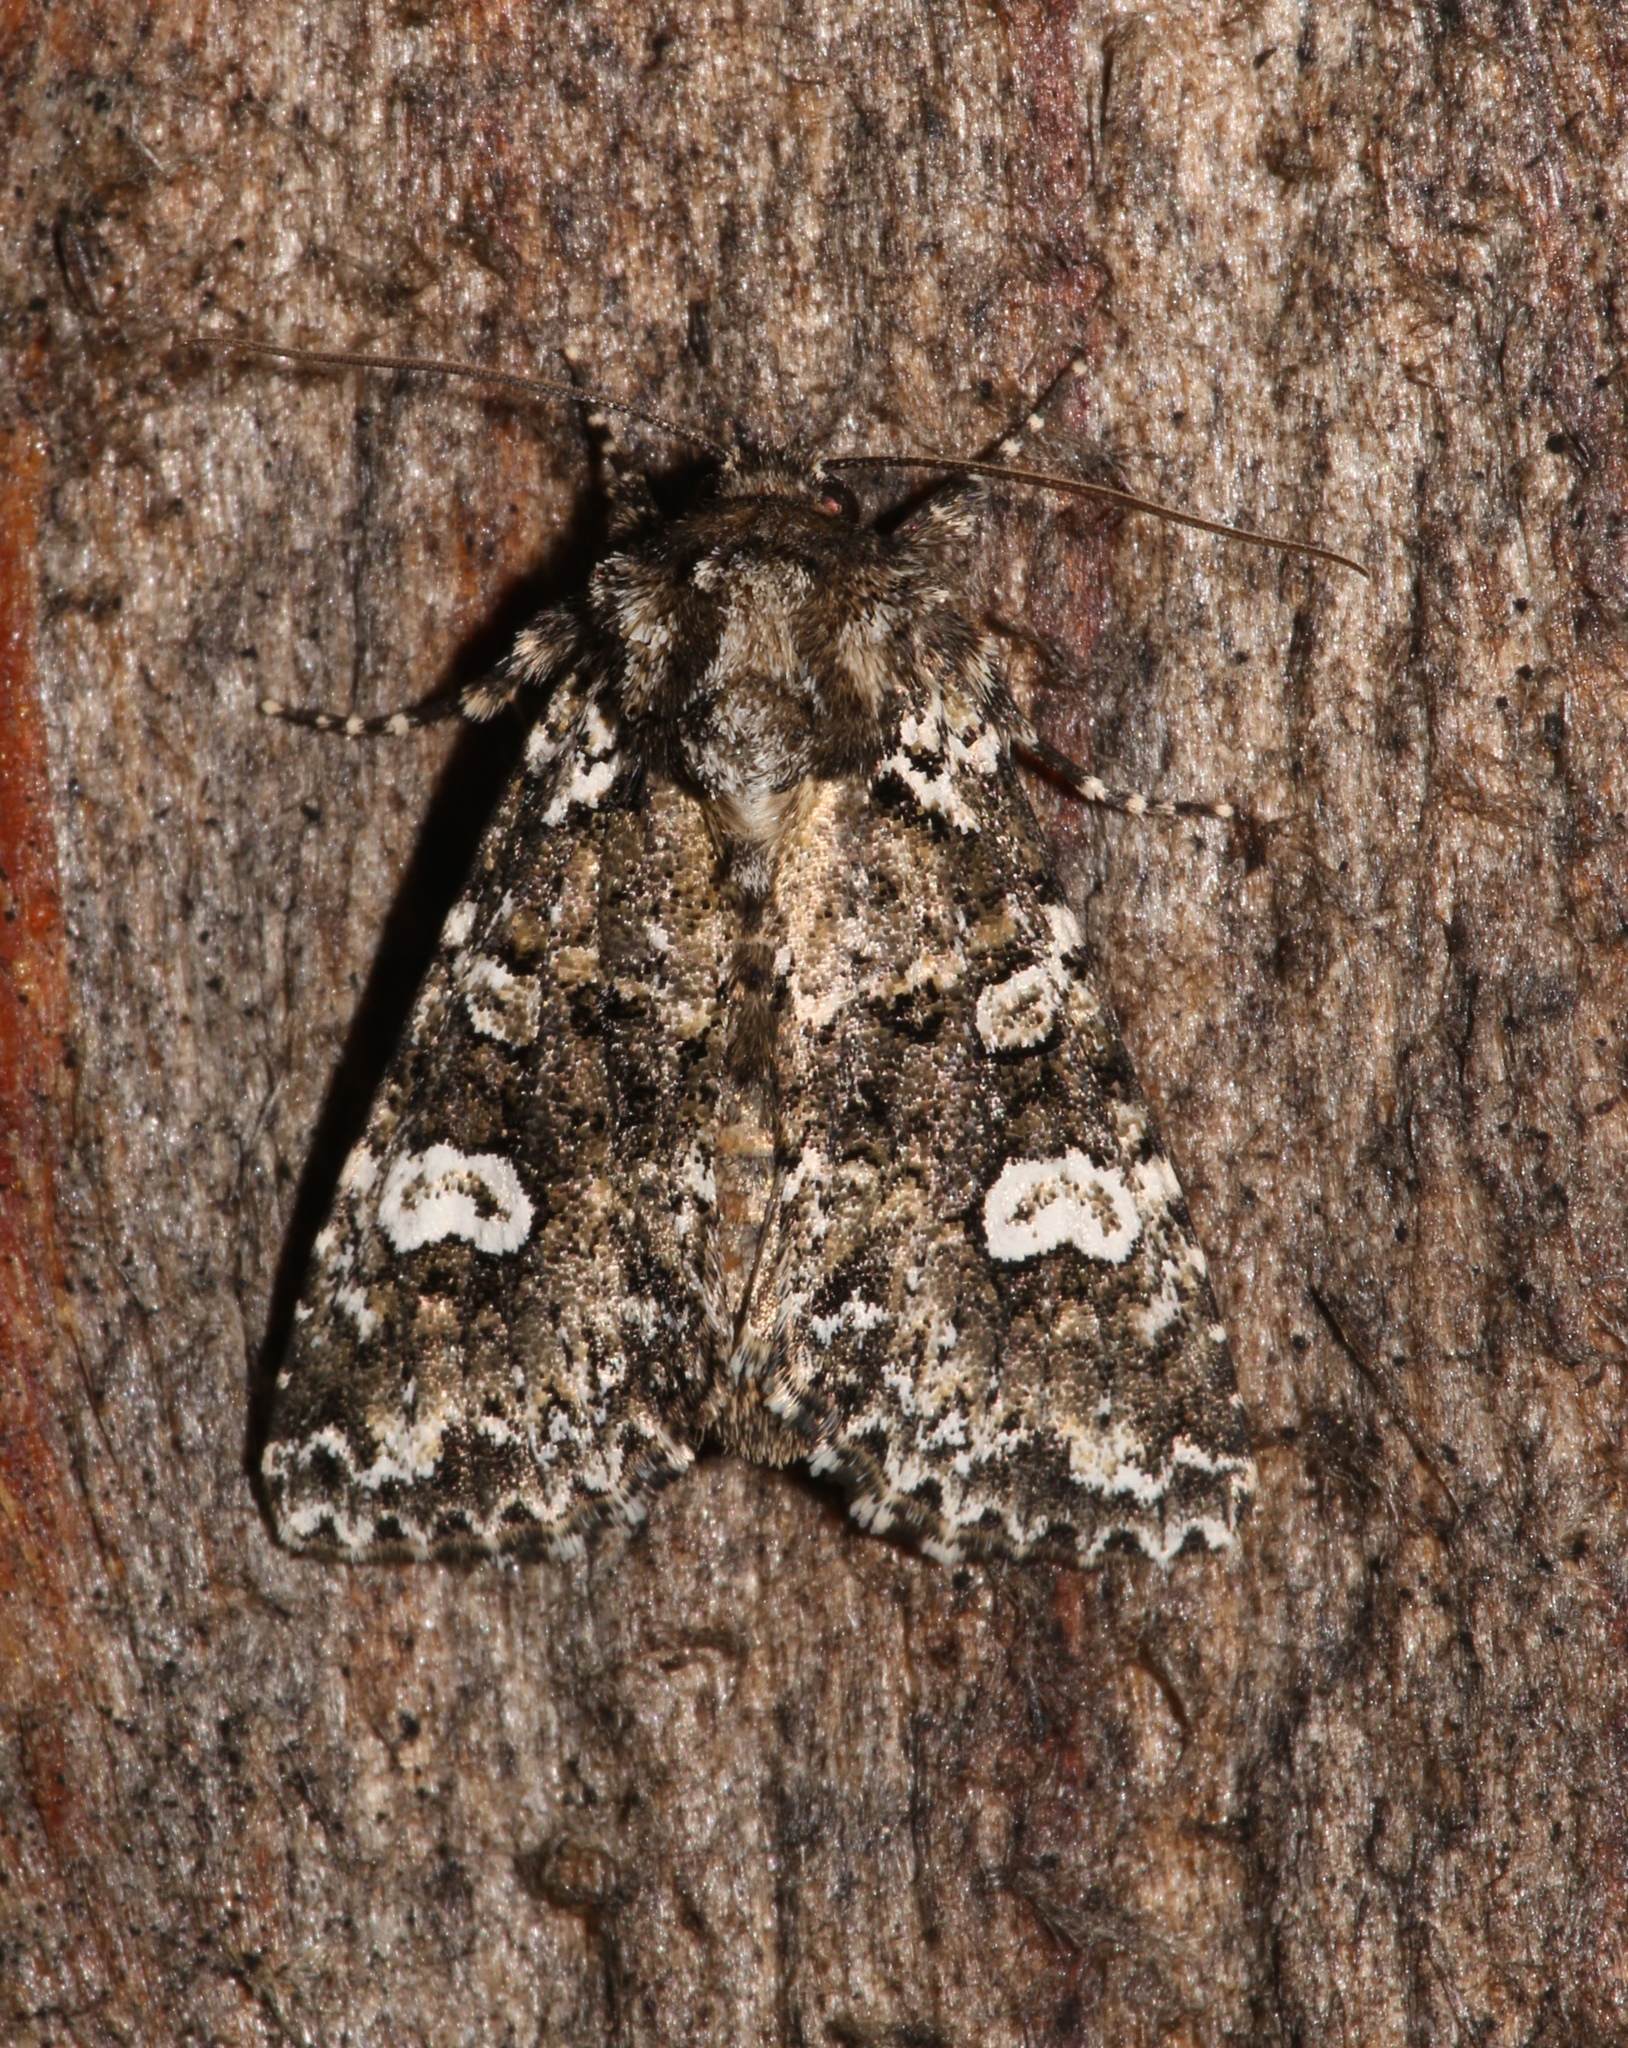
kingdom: Animalia
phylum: Arthropoda
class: Insecta
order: Lepidoptera
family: Noctuidae
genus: Melanchra
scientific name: Melanchra adjuncta
